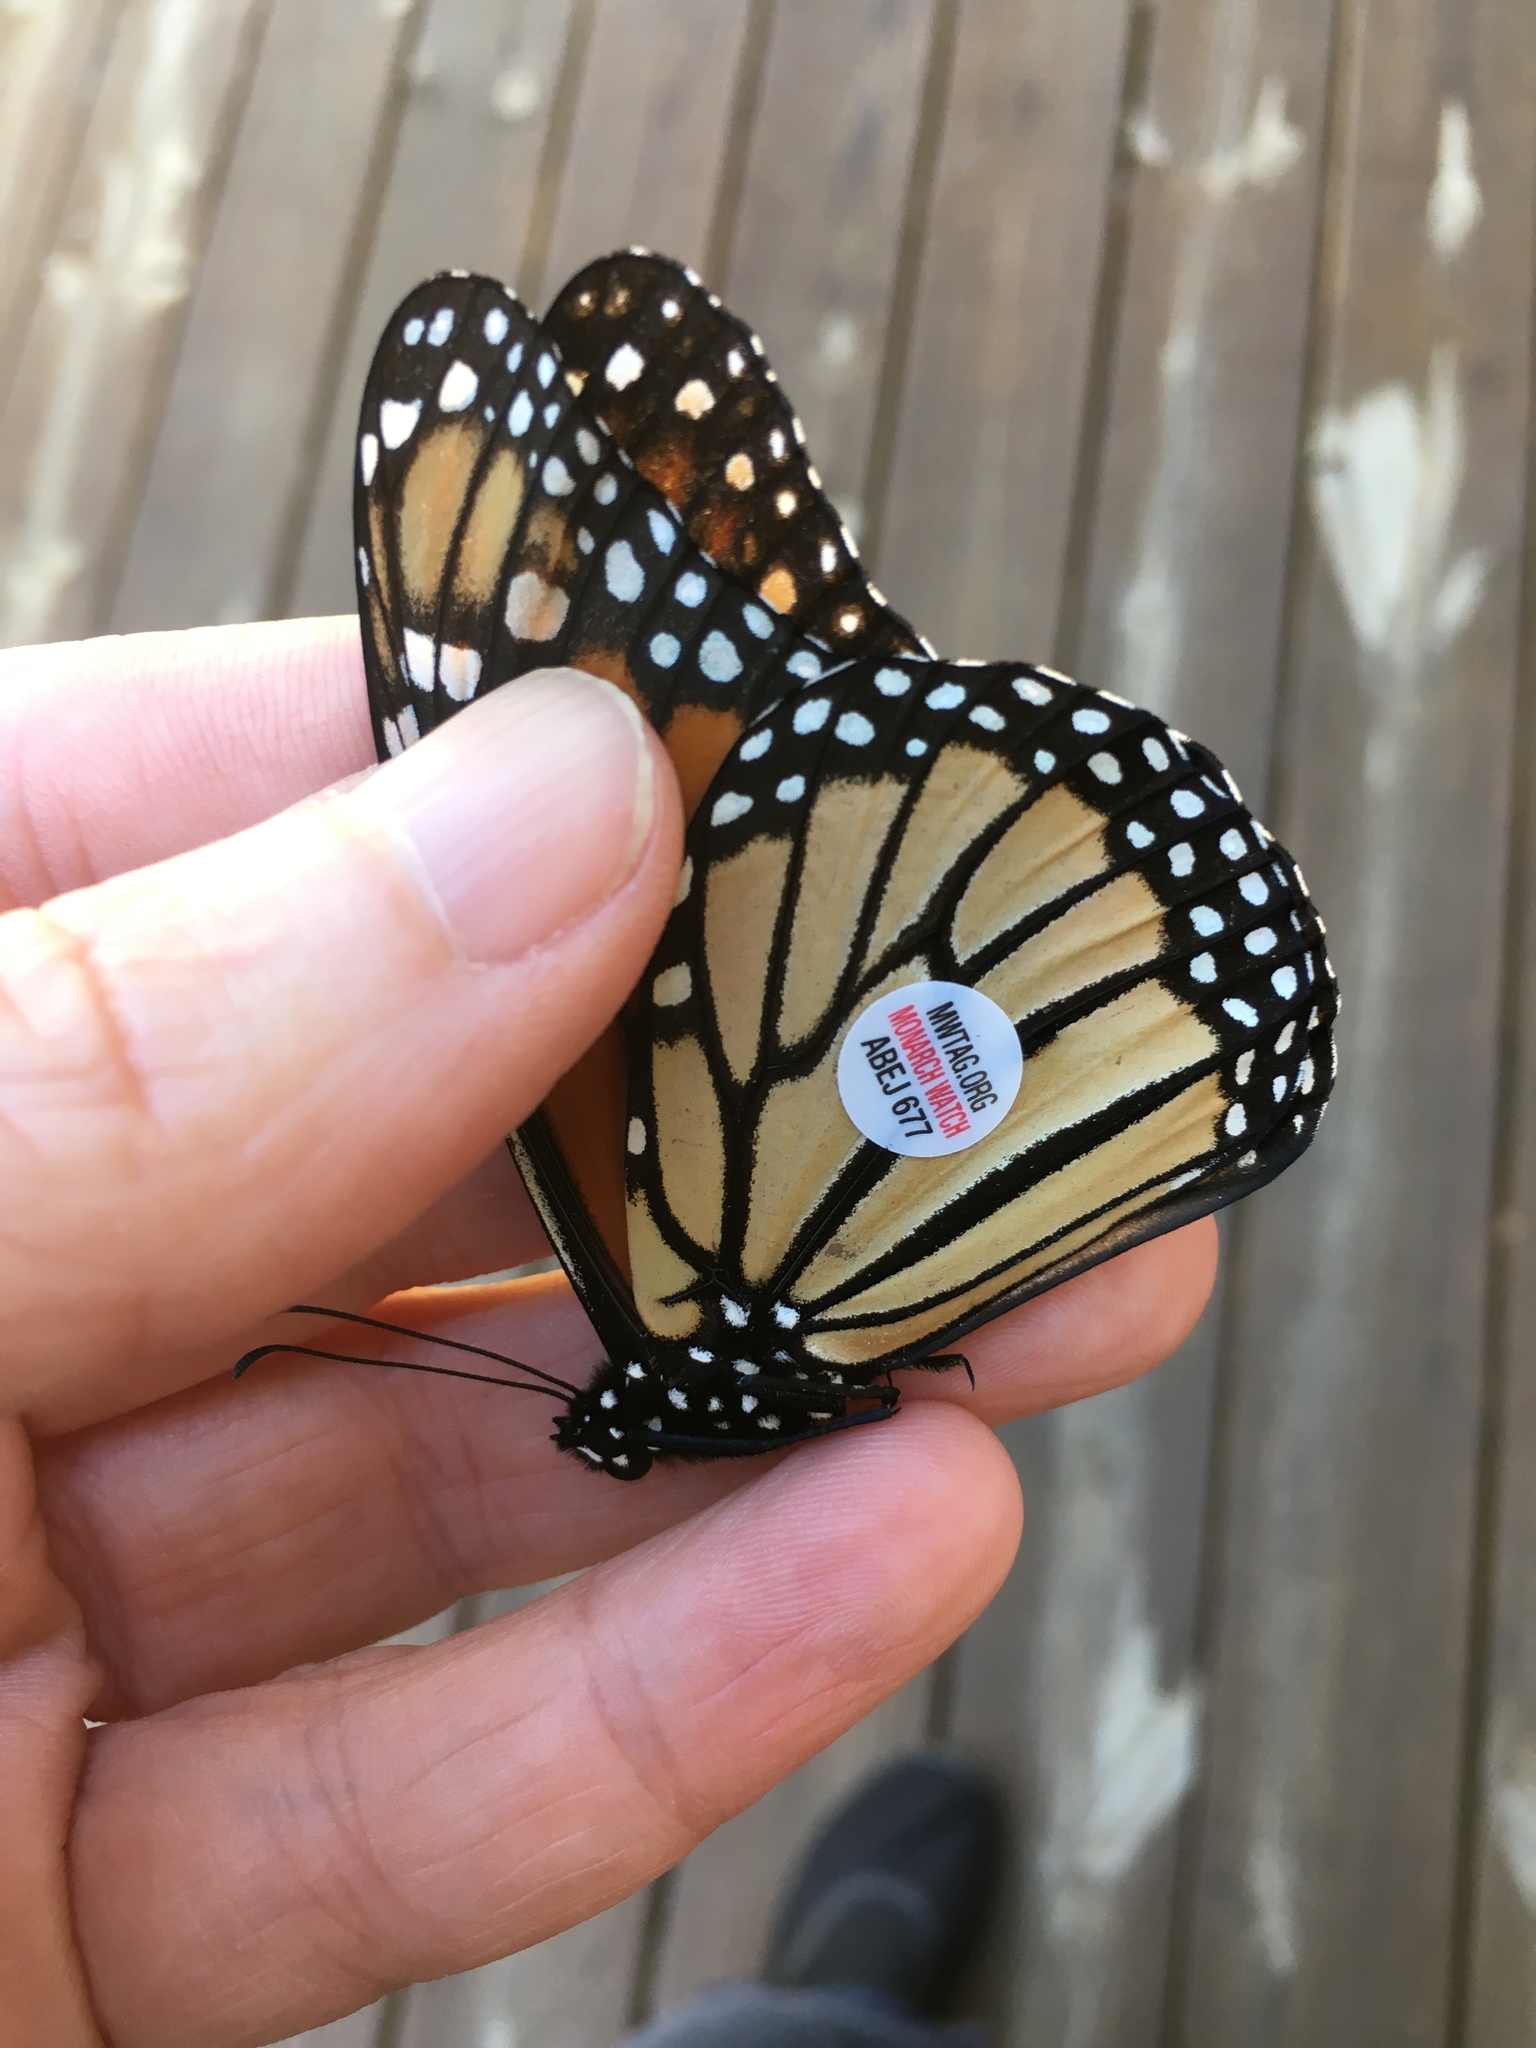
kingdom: Animalia
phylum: Arthropoda
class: Insecta
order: Lepidoptera
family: Nymphalidae
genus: Danaus
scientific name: Danaus plexippus
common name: Monarch
